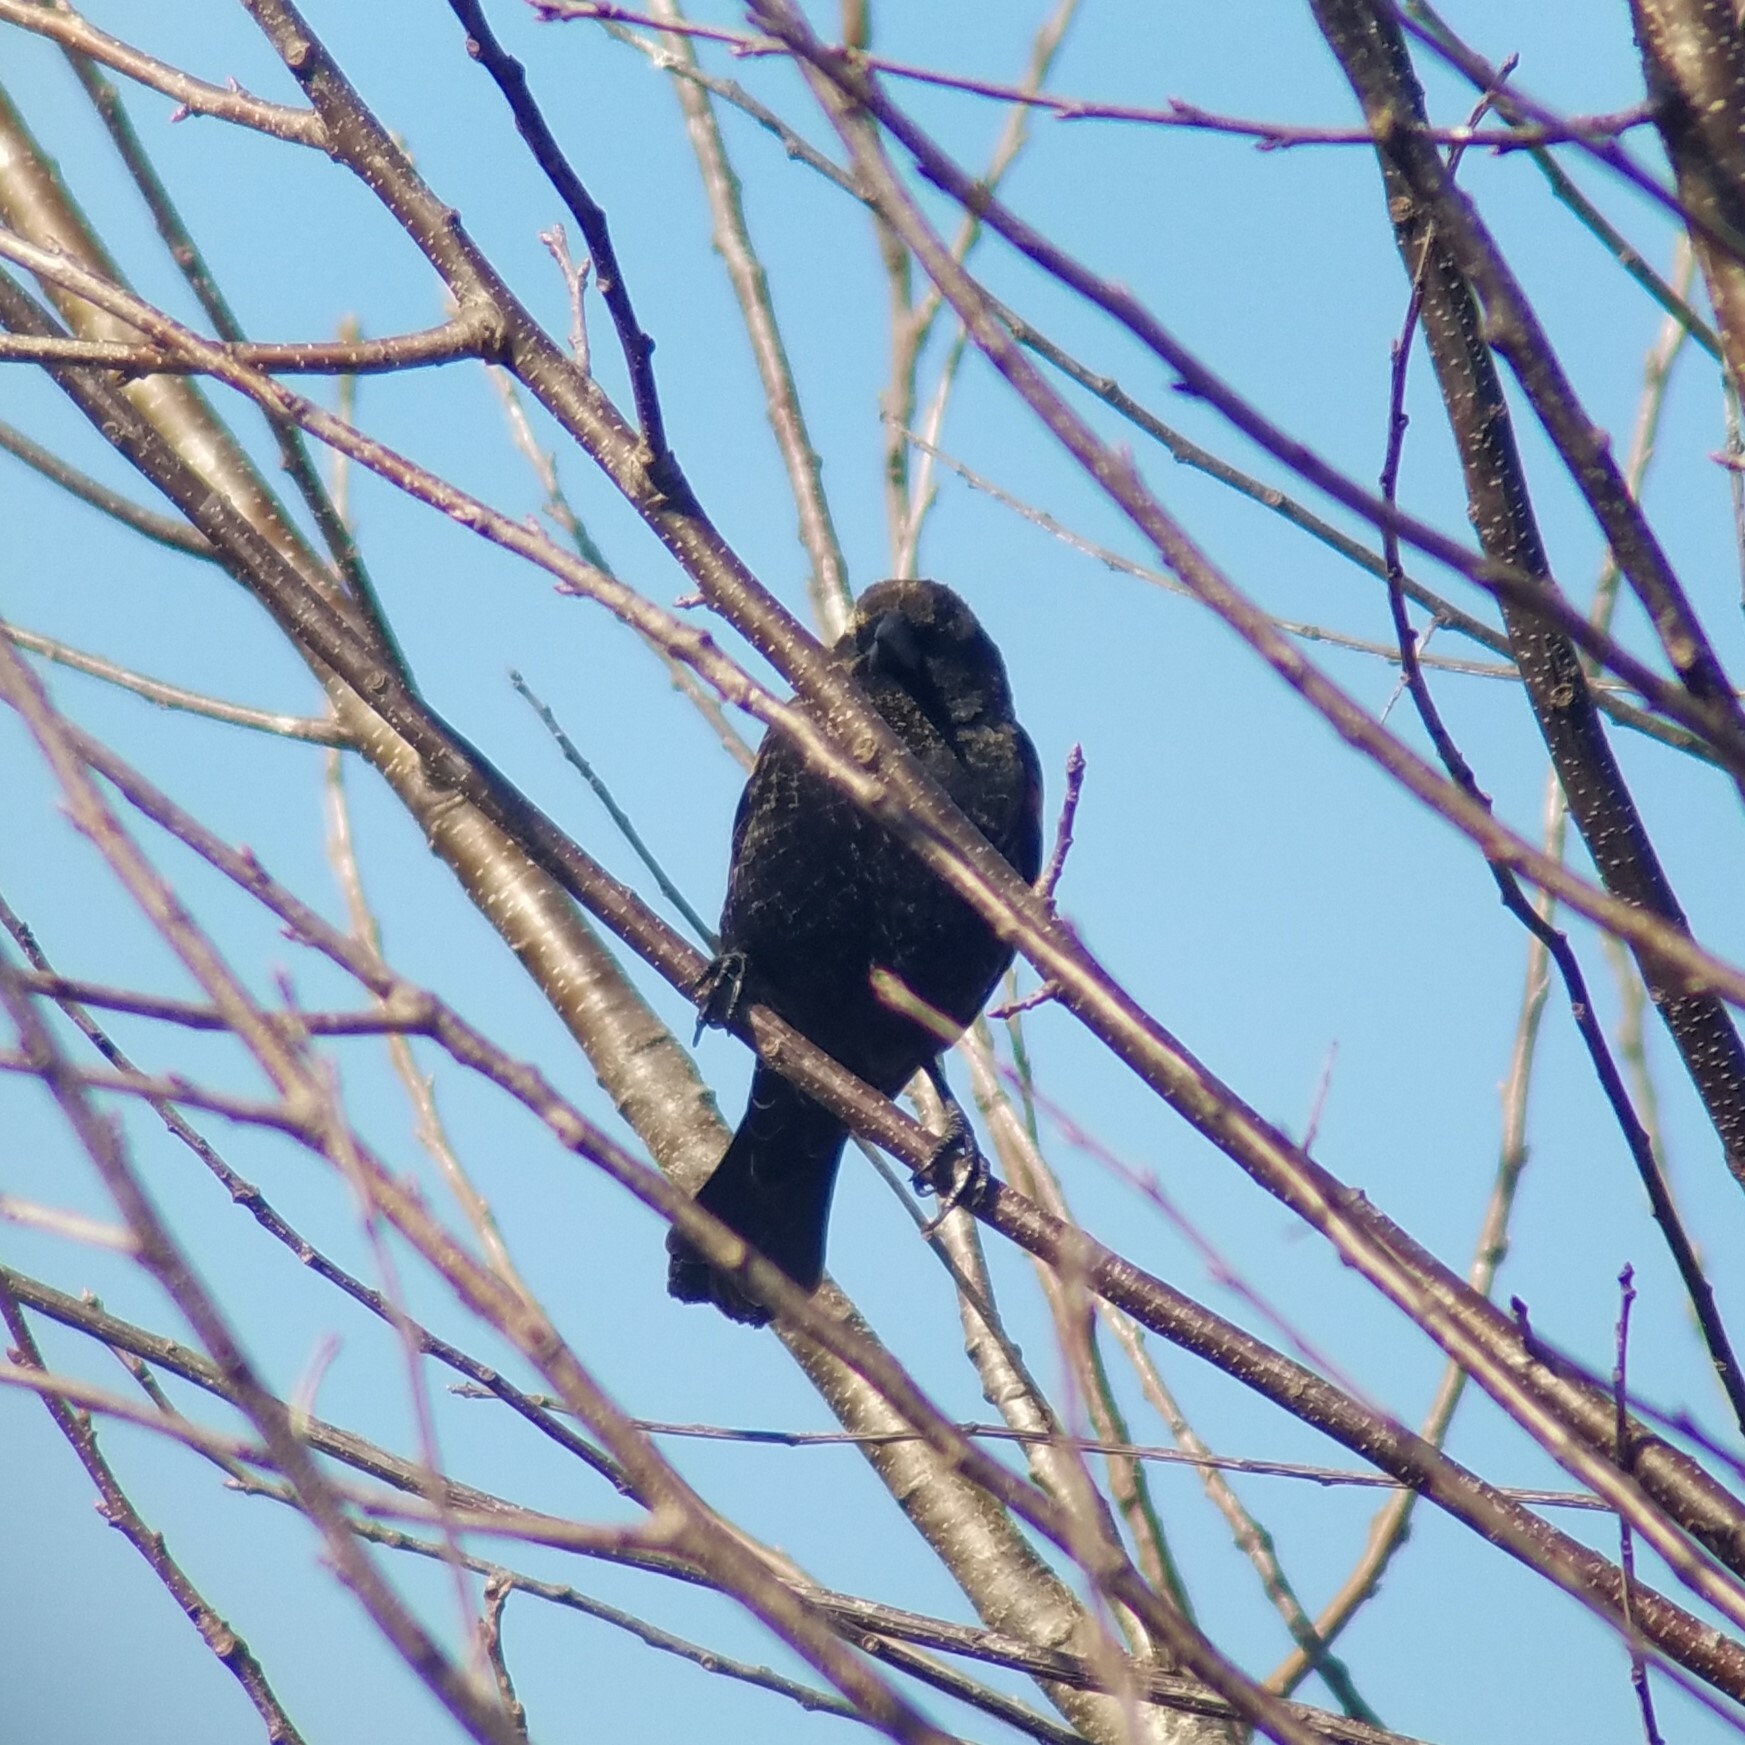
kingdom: Animalia
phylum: Chordata
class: Aves
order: Passeriformes
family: Icteridae
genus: Agelaius
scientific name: Agelaius phoeniceus
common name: Red-winged blackbird
